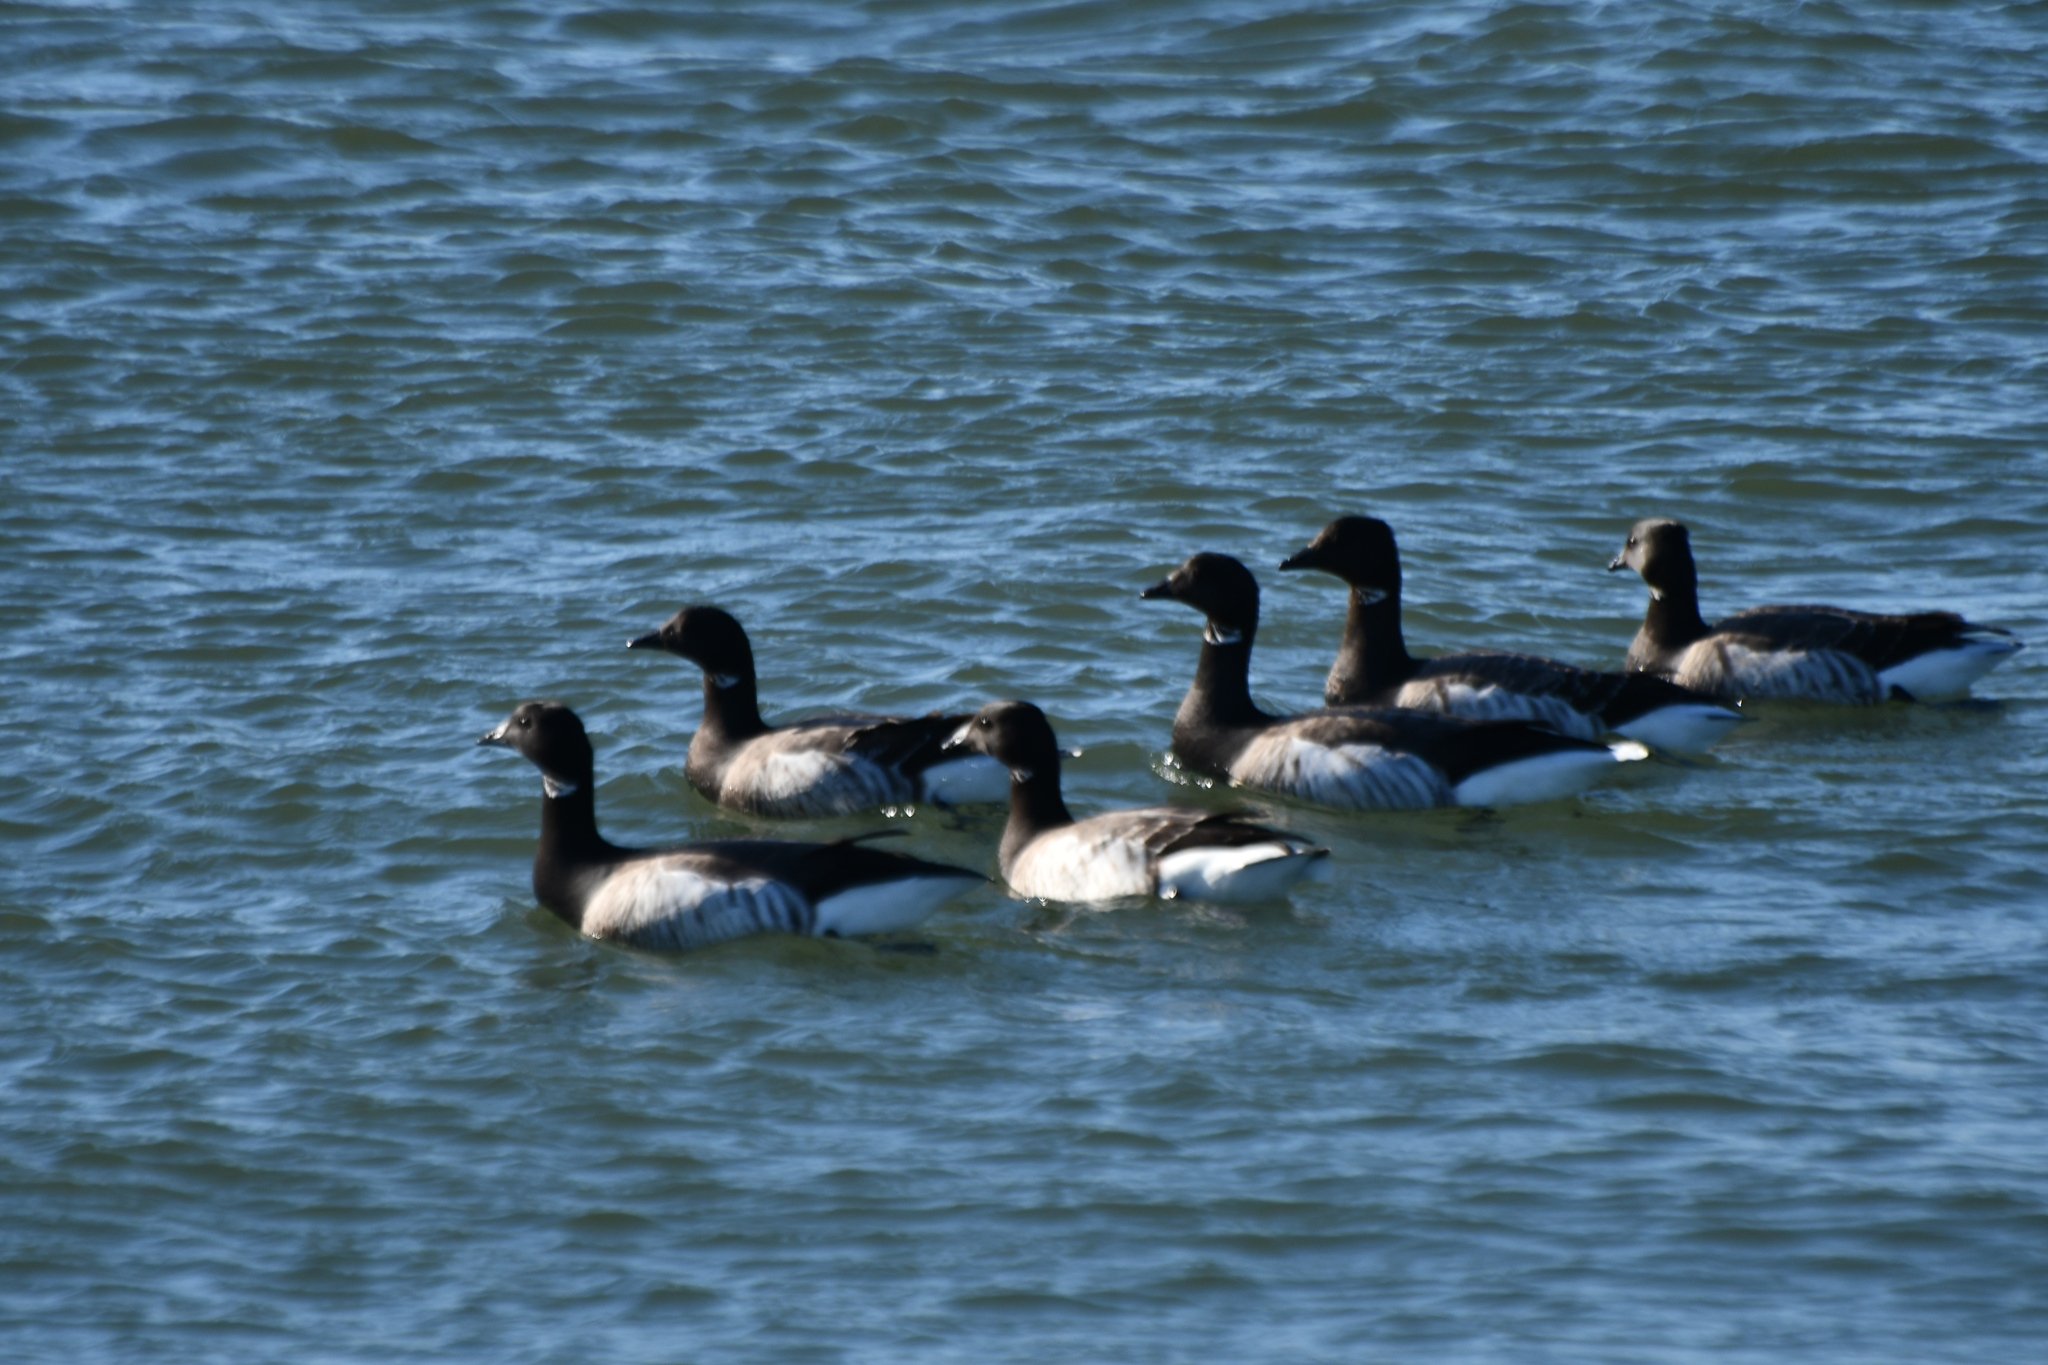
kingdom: Animalia
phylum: Chordata
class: Aves
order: Anseriformes
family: Anatidae
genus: Branta
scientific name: Branta bernicla
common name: Brant goose
